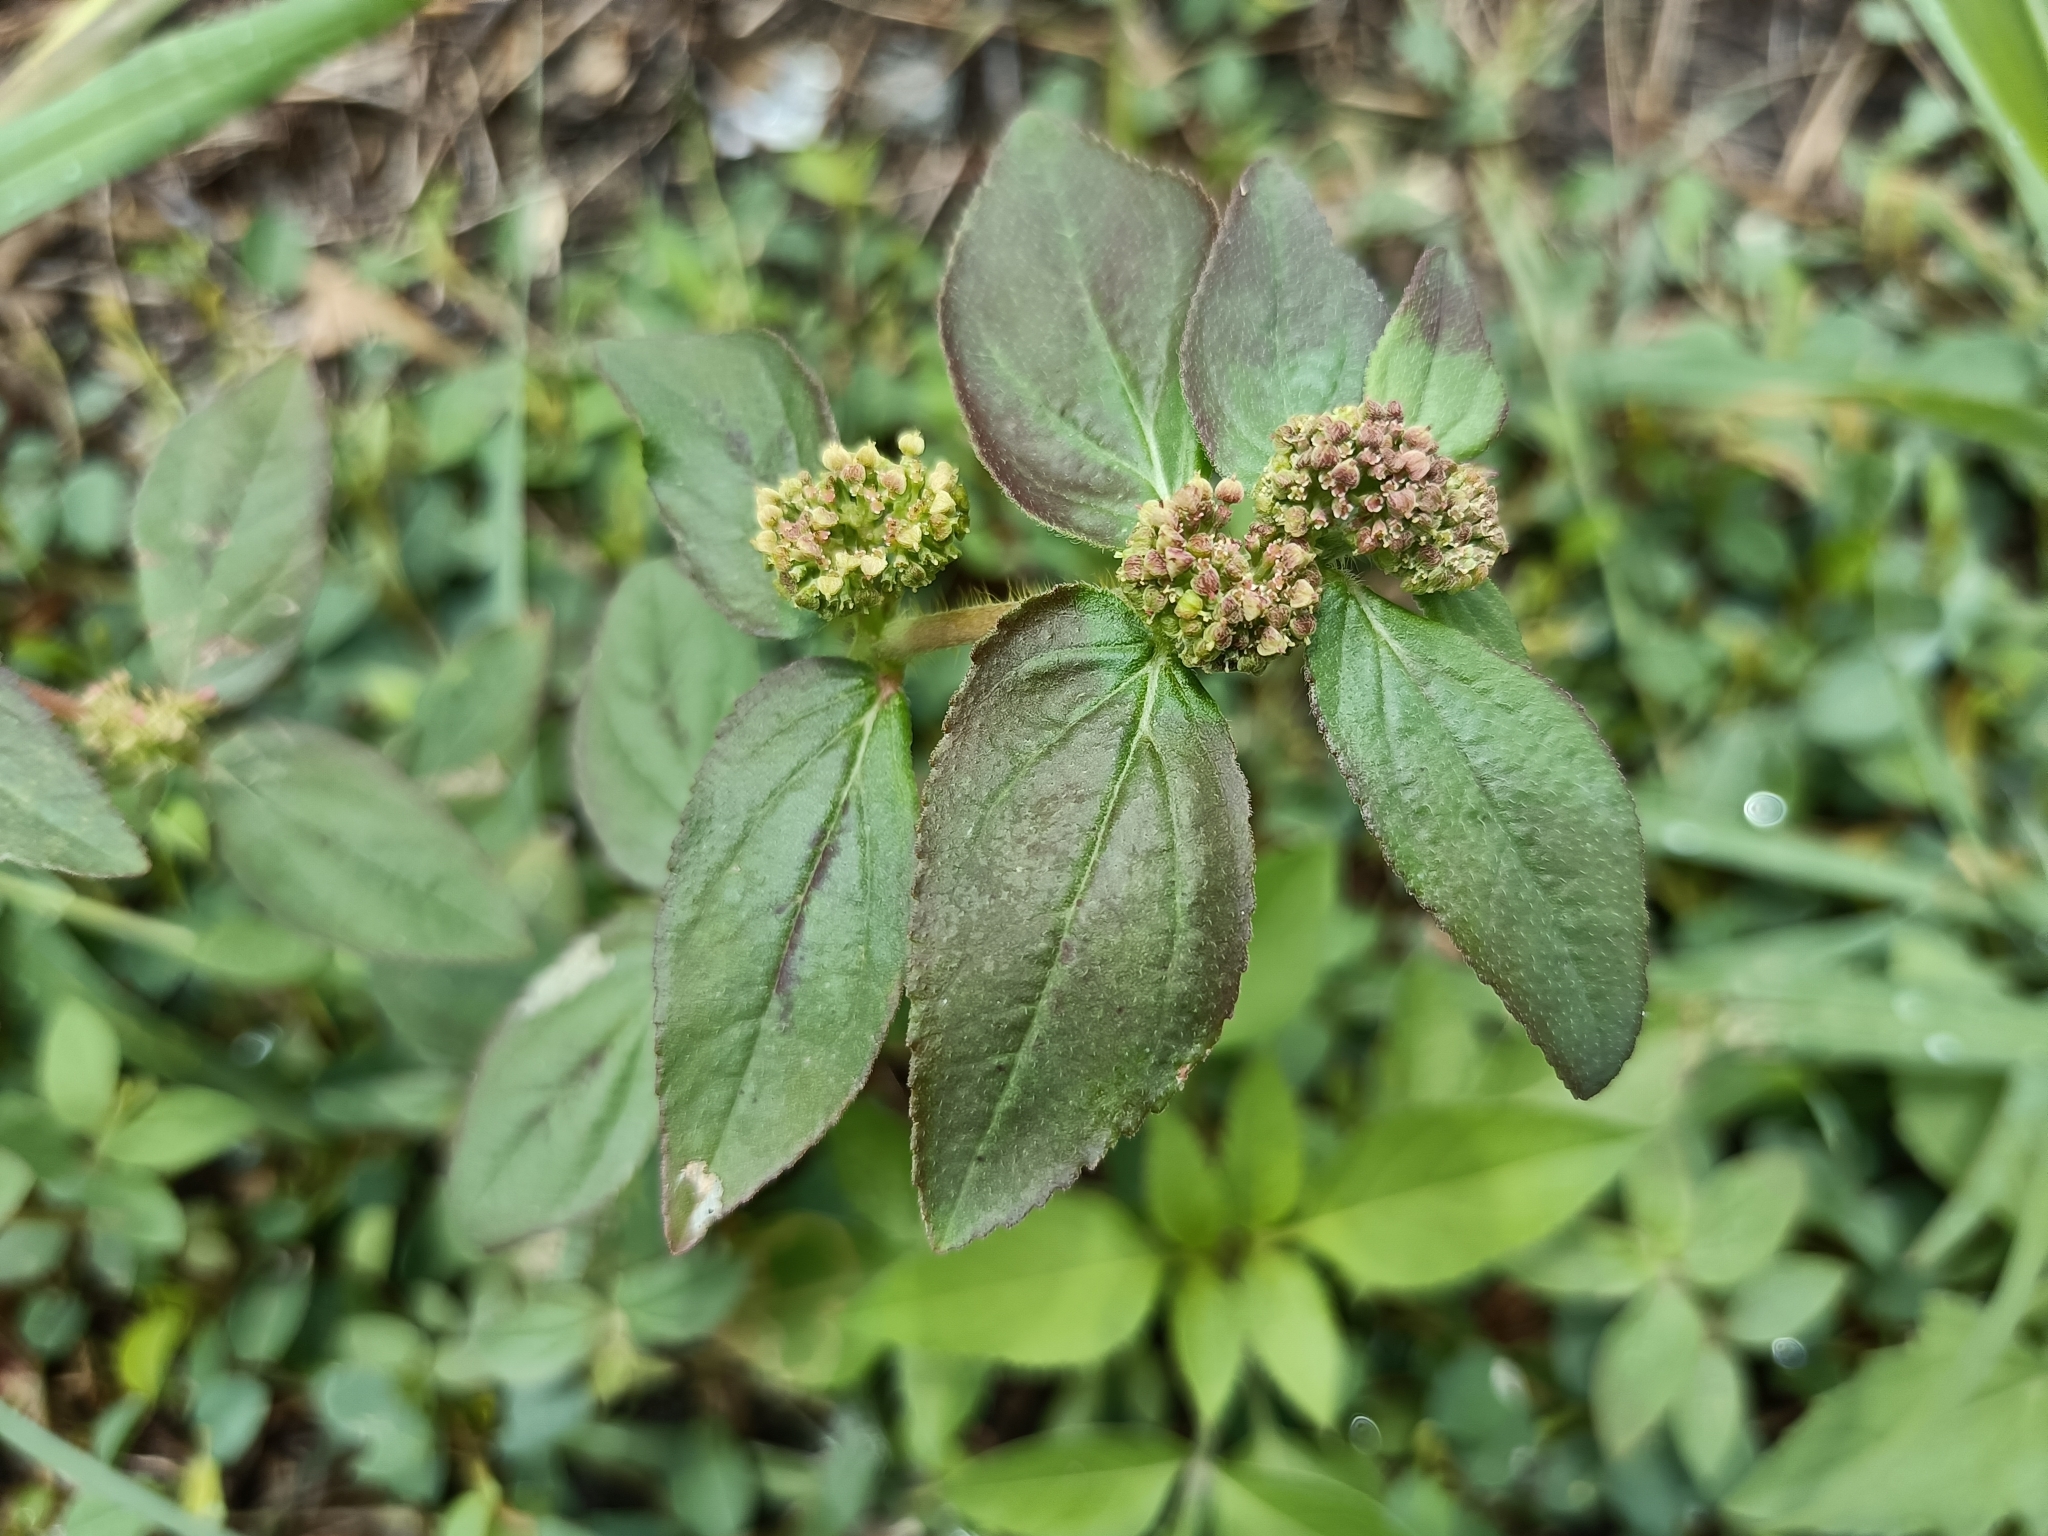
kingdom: Plantae
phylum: Tracheophyta
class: Magnoliopsida
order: Malpighiales
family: Euphorbiaceae
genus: Euphorbia
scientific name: Euphorbia hirta
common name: Pillpod sandmat
